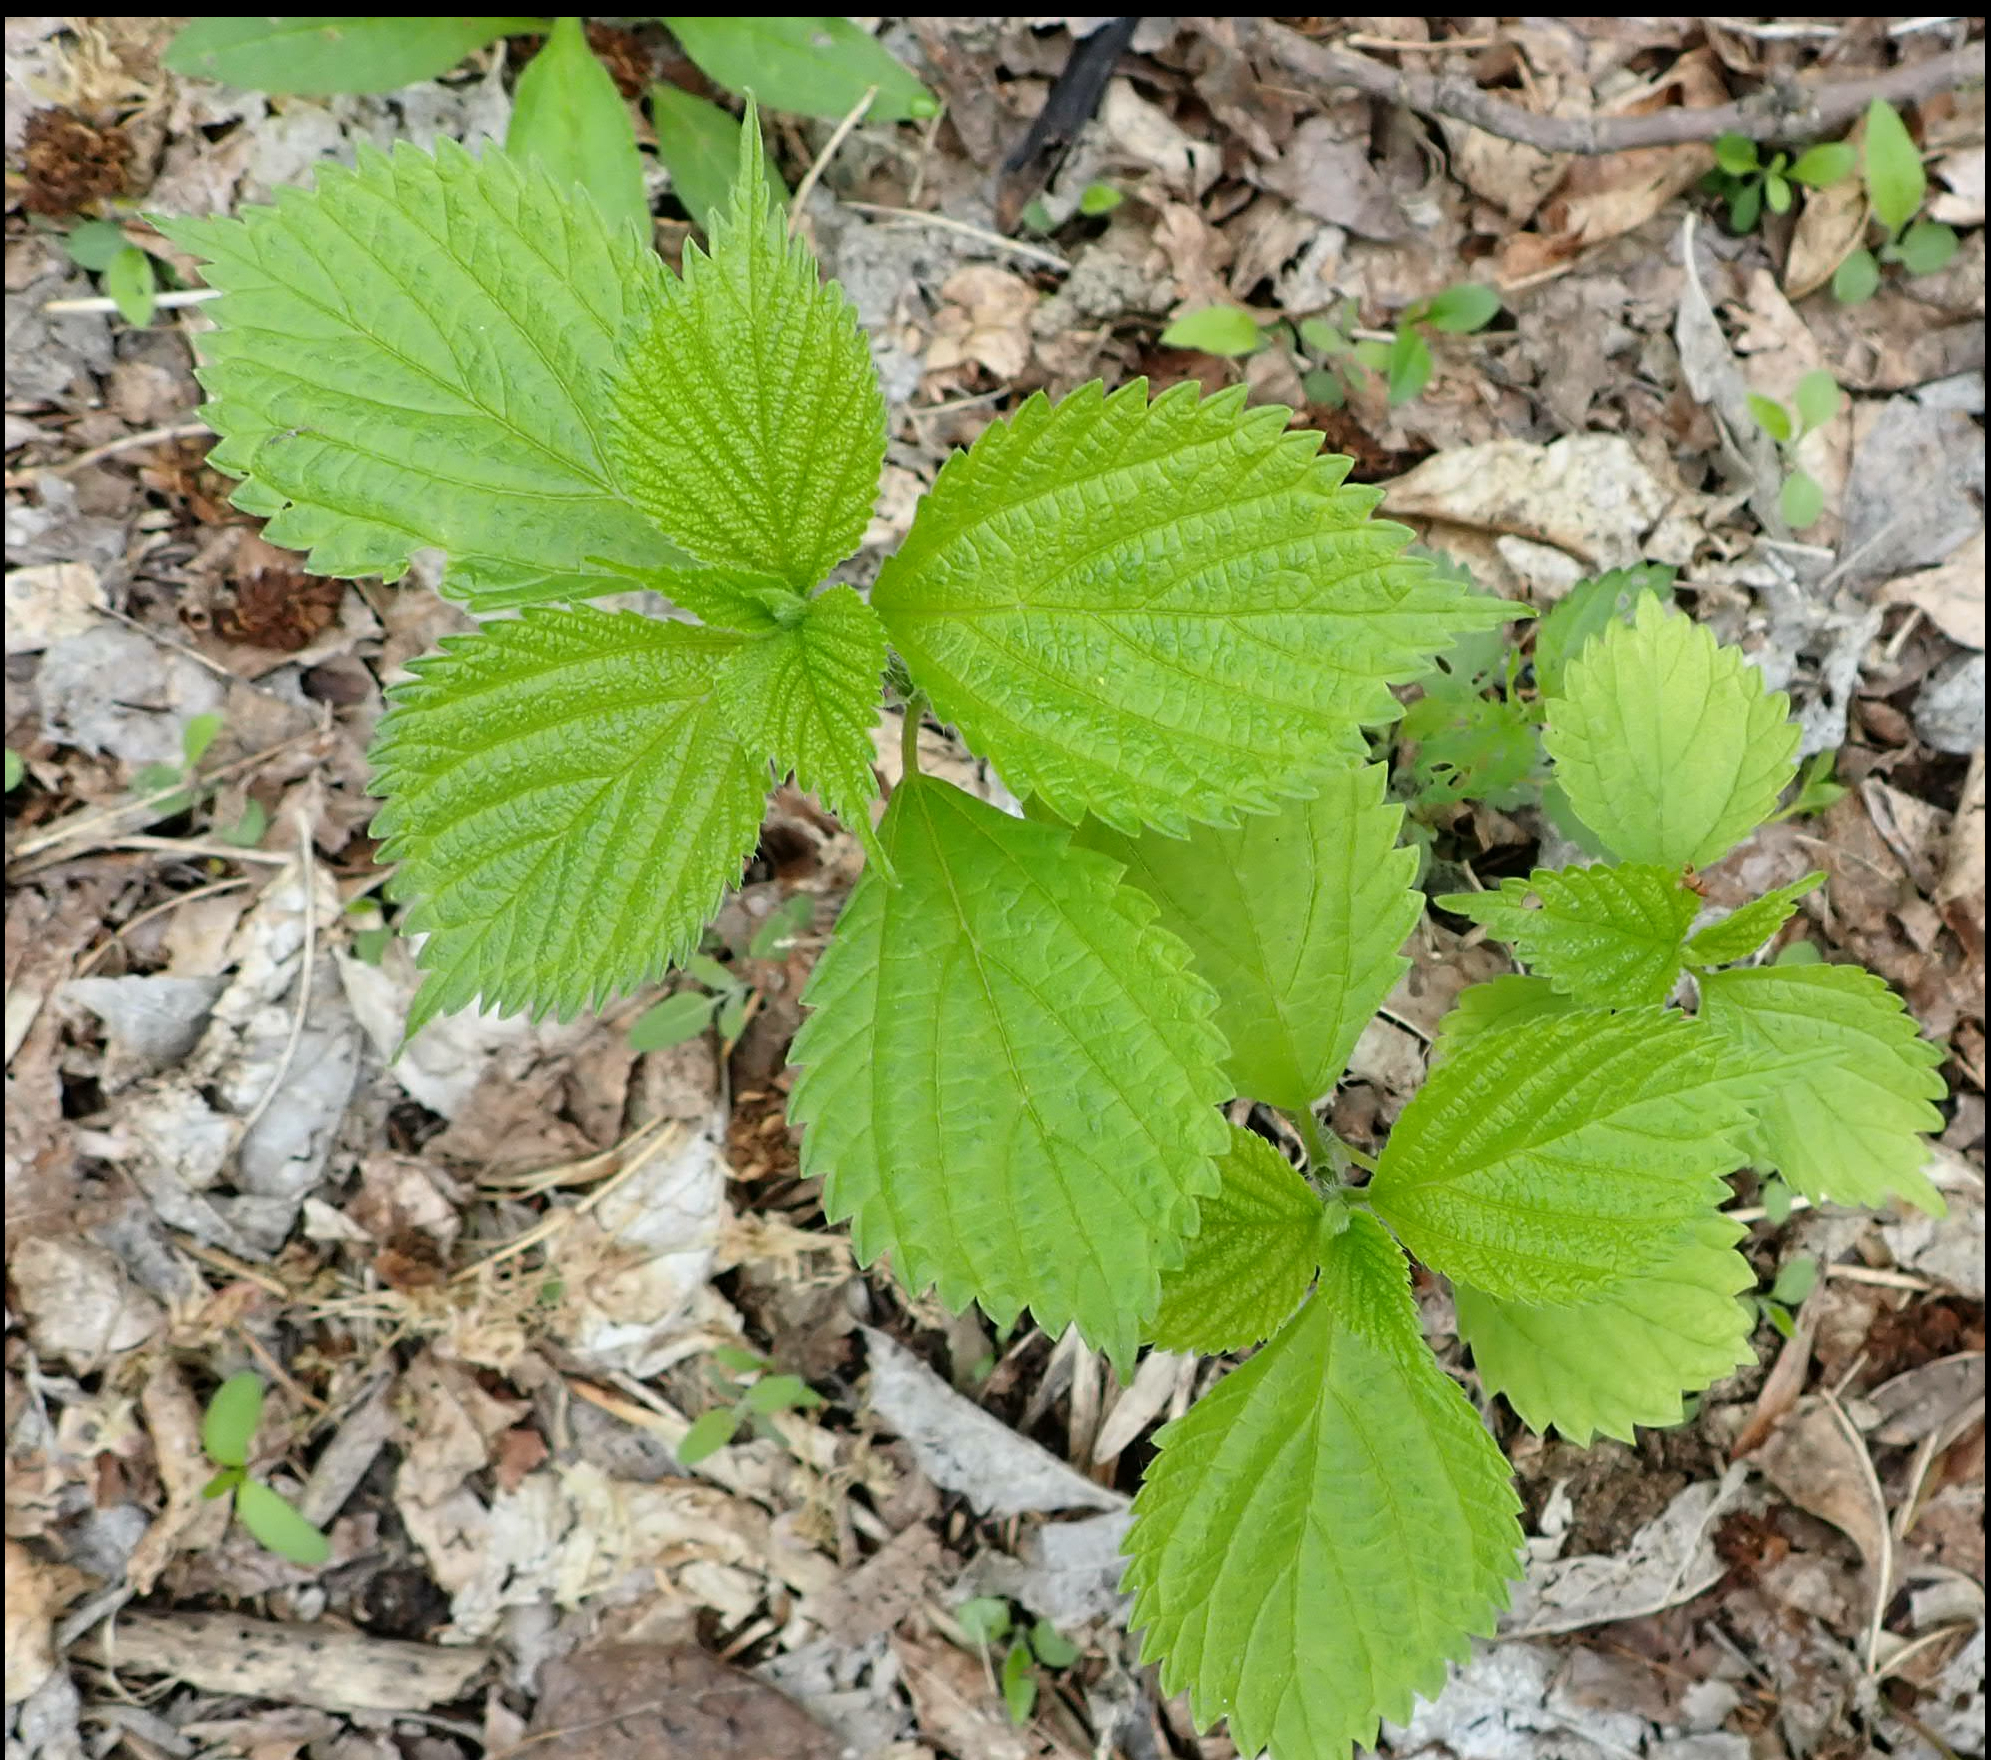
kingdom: Plantae
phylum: Tracheophyta
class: Magnoliopsida
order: Rosales
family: Urticaceae
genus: Laportea
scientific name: Laportea canadensis
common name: Canada nettle
